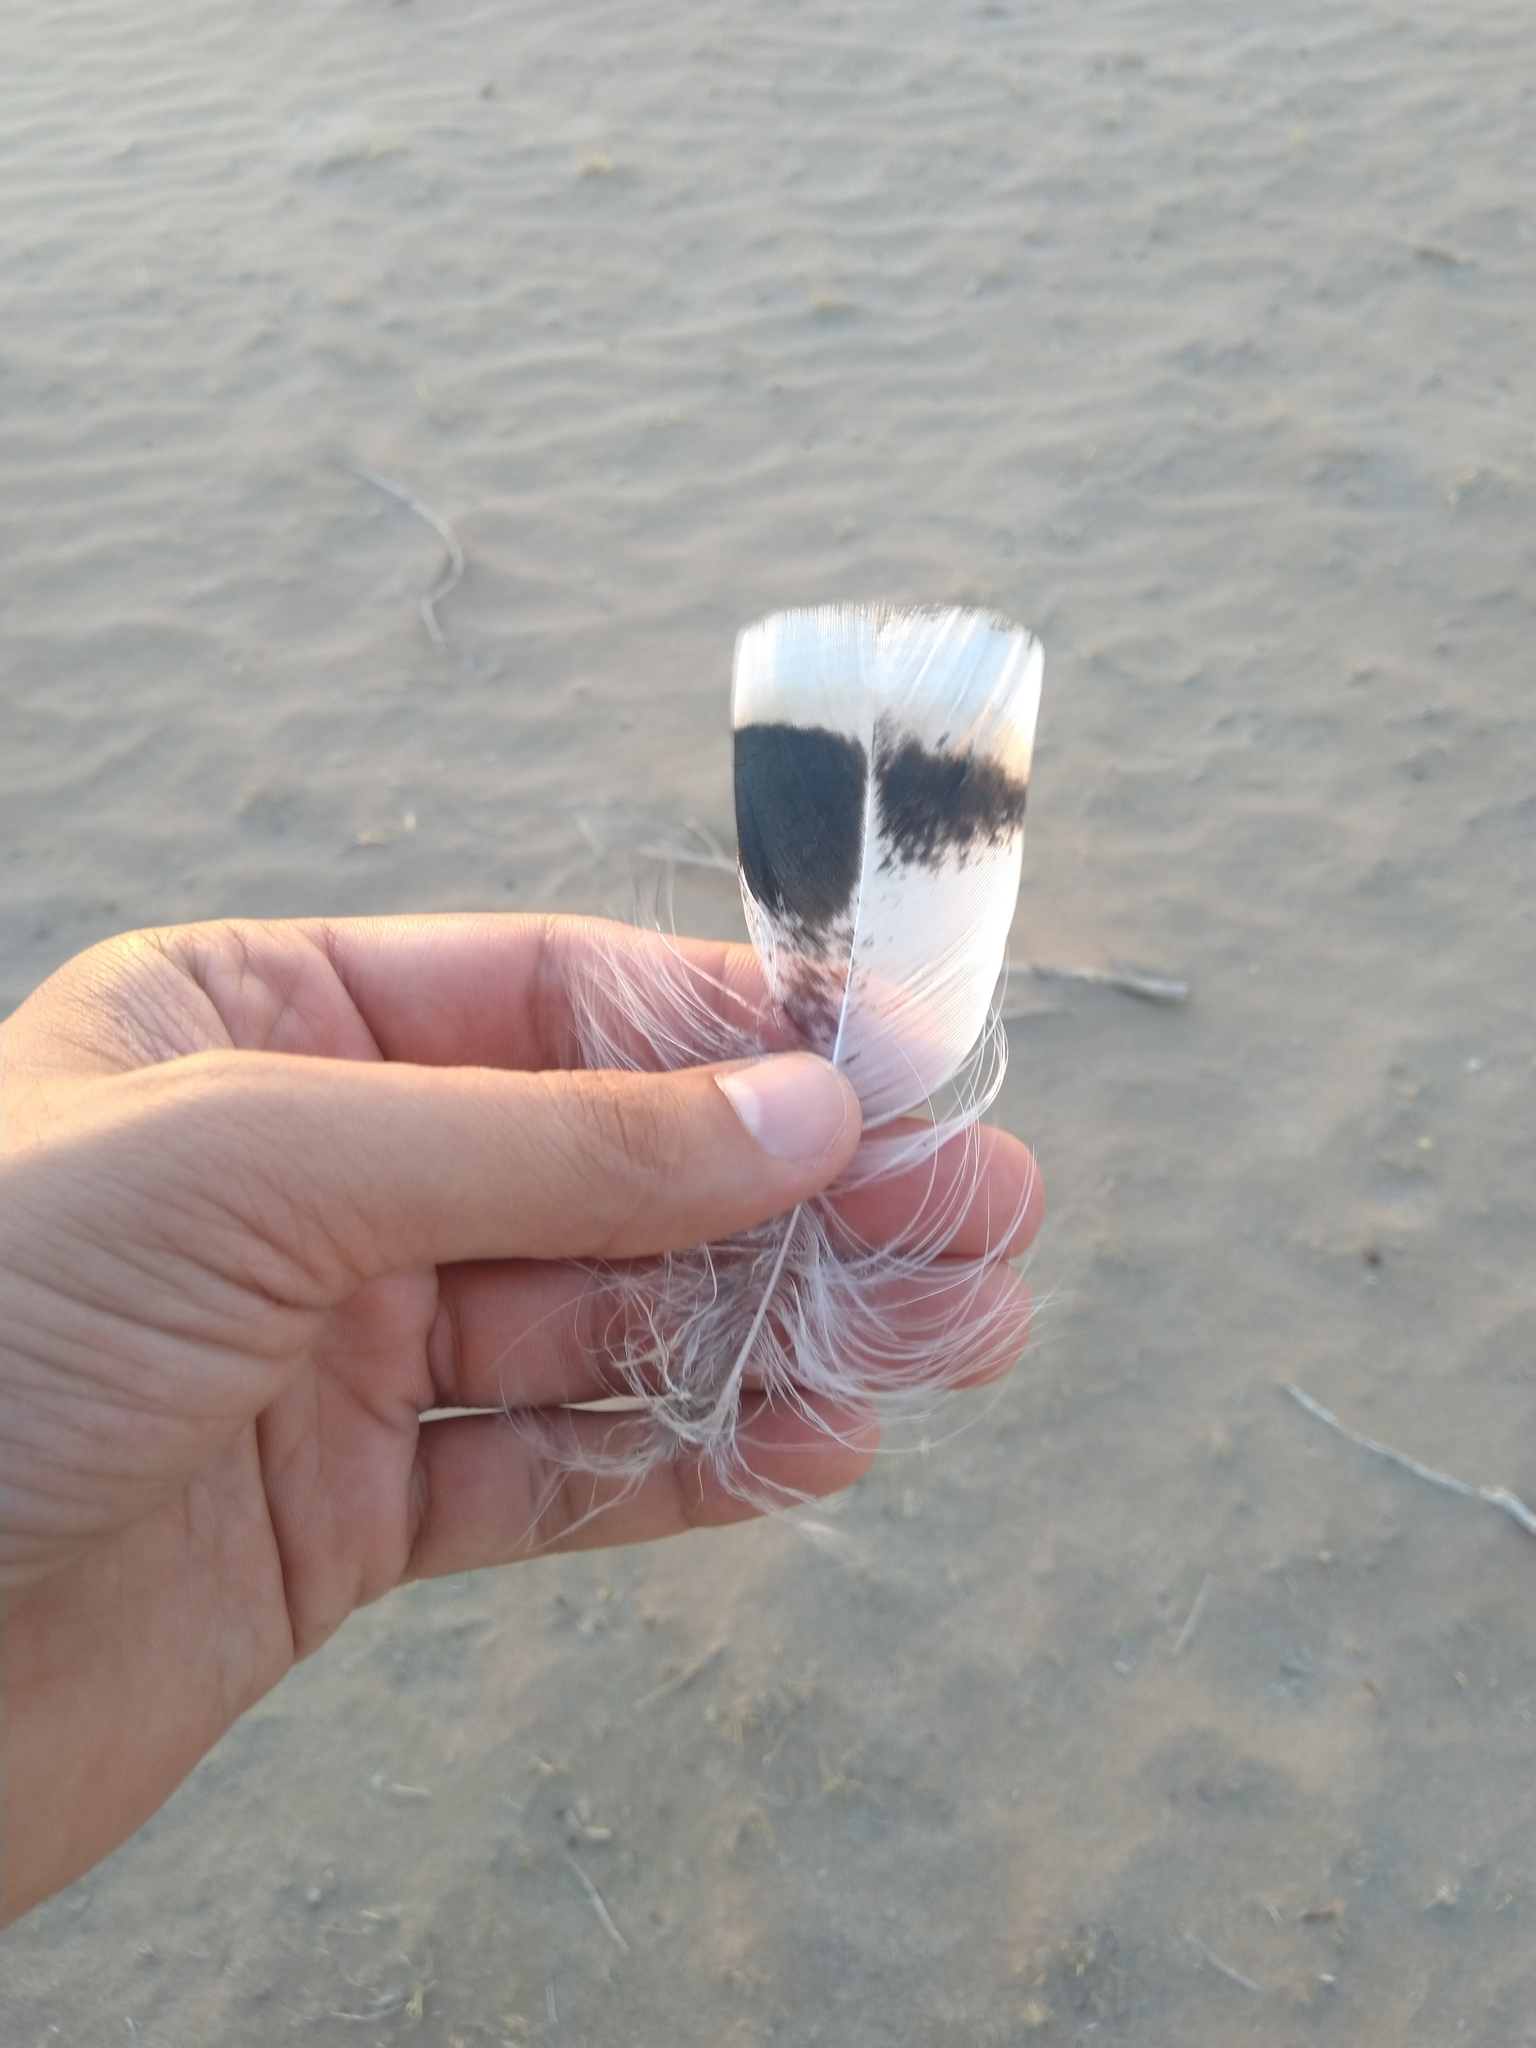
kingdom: Animalia
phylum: Chordata
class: Aves
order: Galliformes
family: Phasianidae
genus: Meleagris
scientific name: Meleagris gallopavo
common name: Wild turkey
